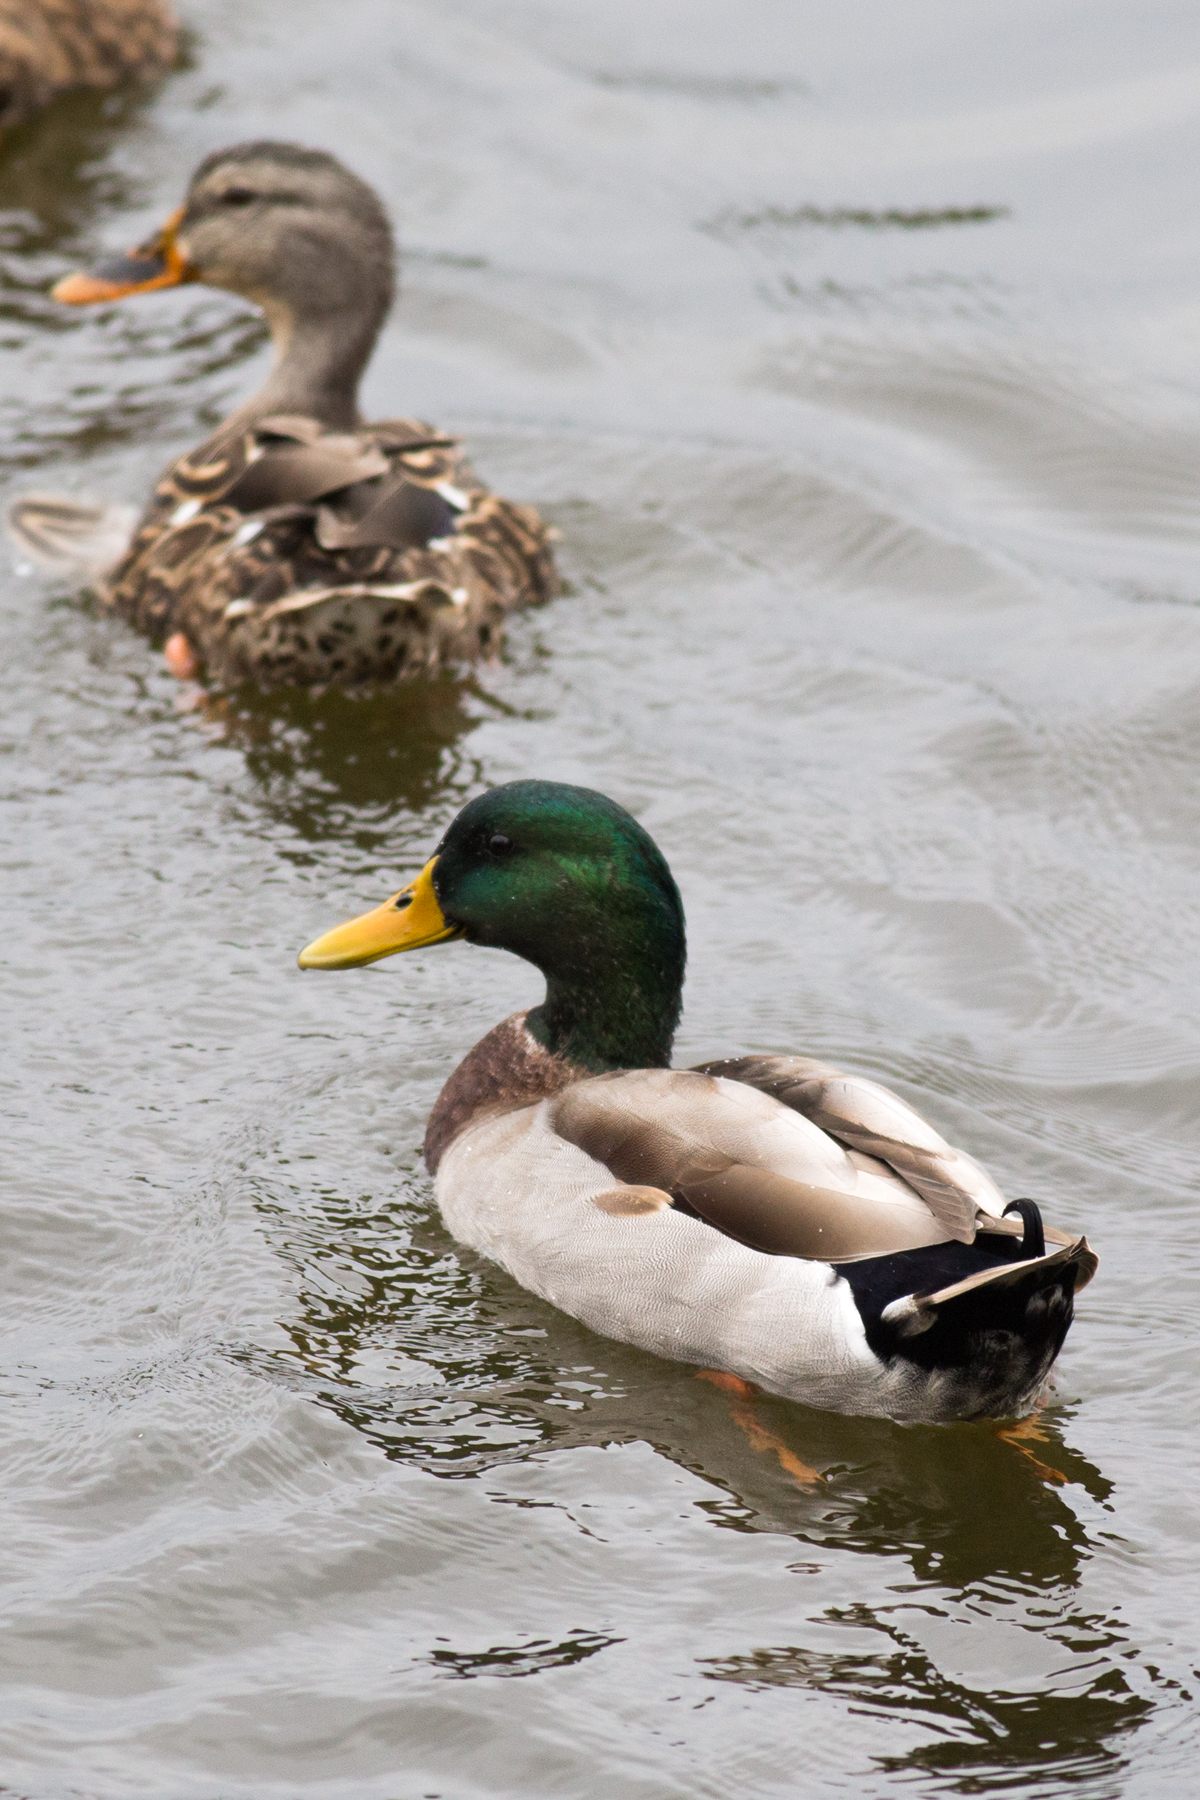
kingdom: Animalia
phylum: Chordata
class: Aves
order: Anseriformes
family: Anatidae
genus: Anas
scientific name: Anas platyrhynchos
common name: Mallard
